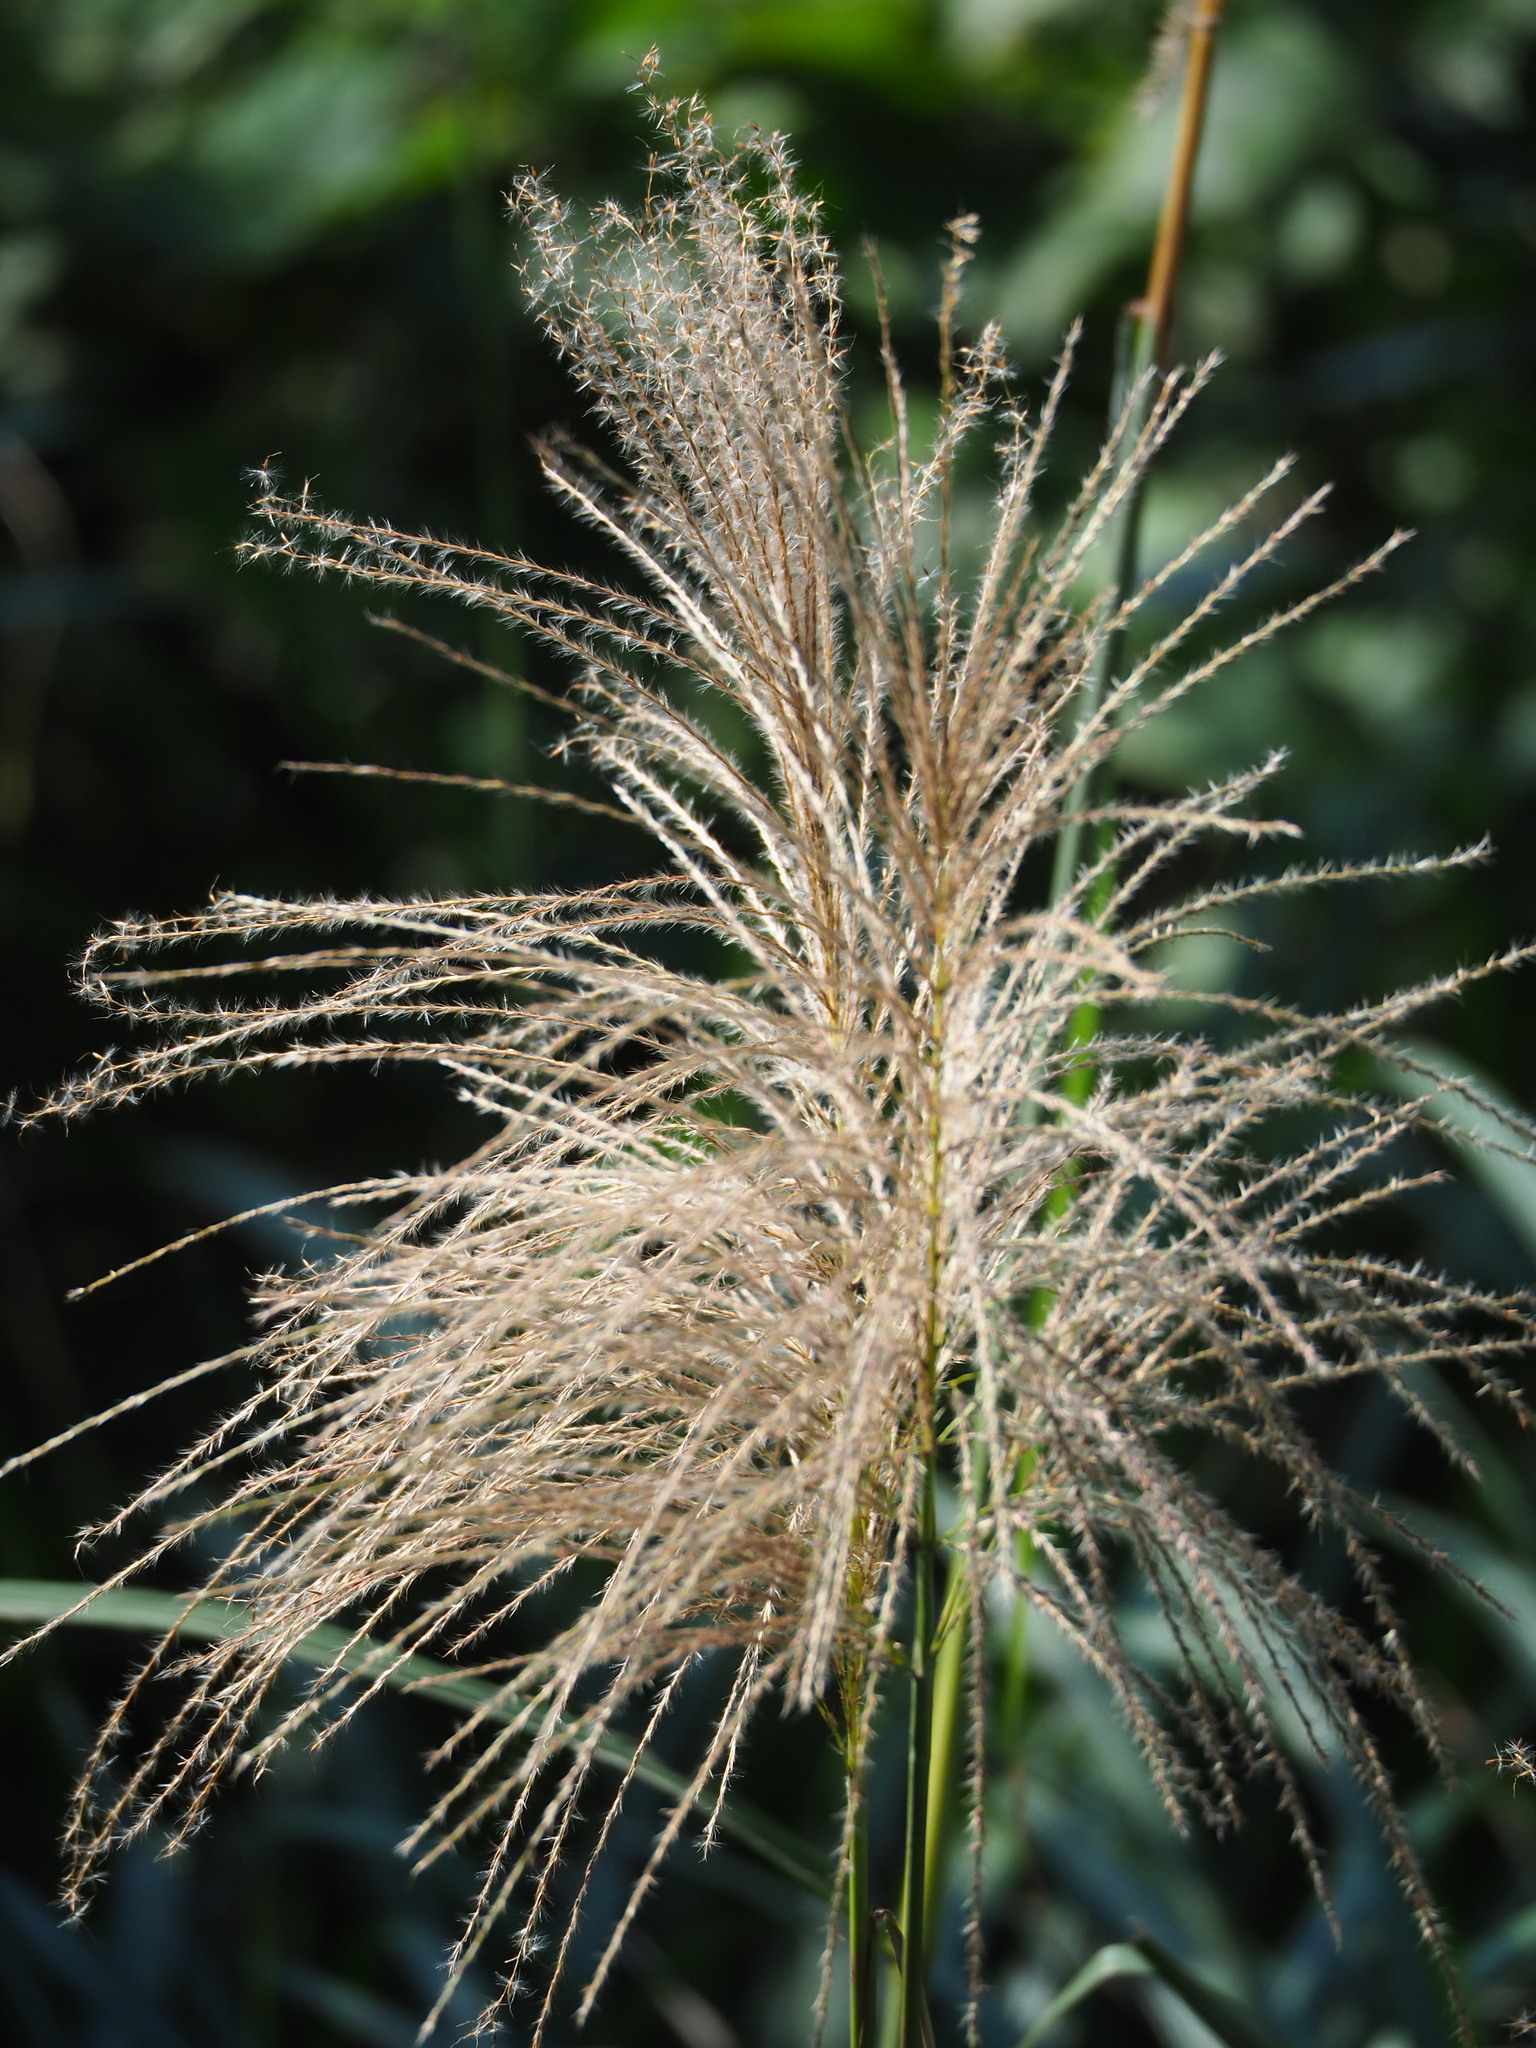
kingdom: Plantae
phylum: Tracheophyta
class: Liliopsida
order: Poales
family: Poaceae
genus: Miscanthus
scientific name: Miscanthus sinensis
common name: Chinese silvergrass
